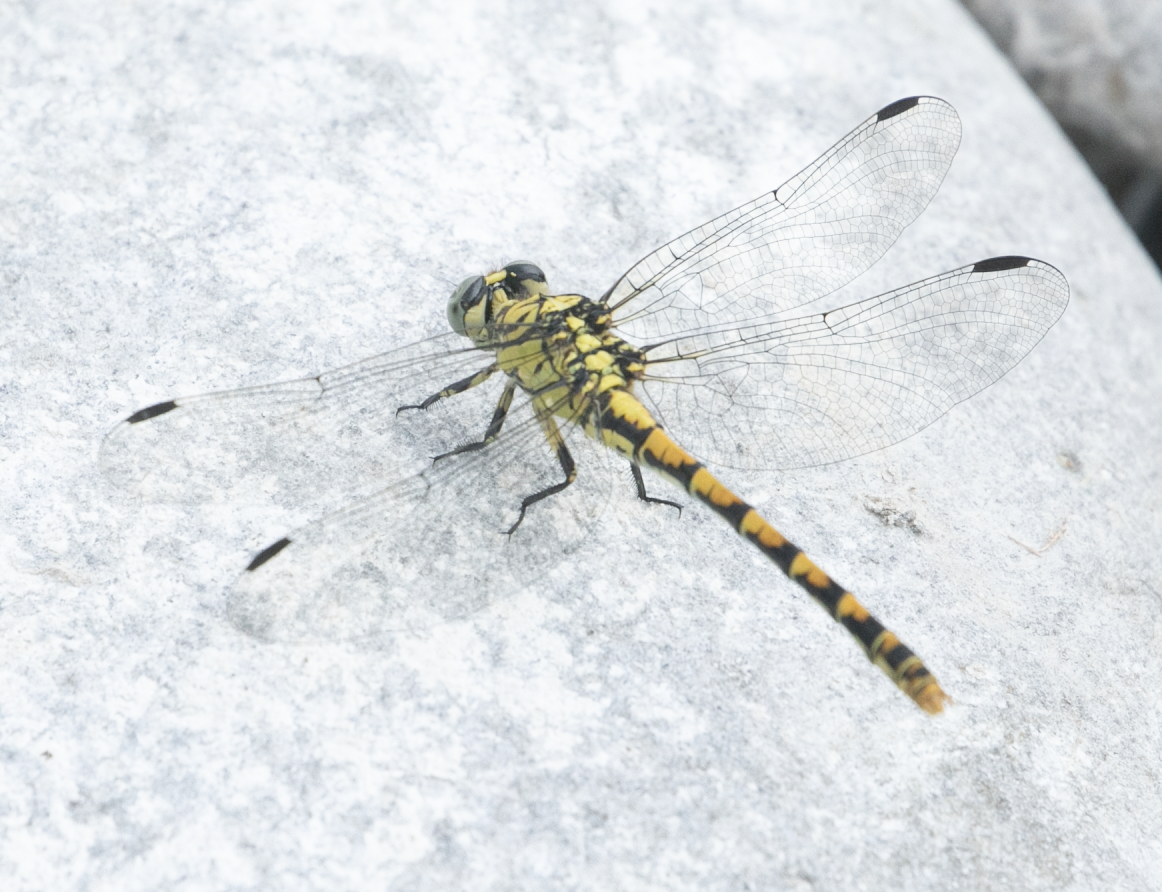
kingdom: Animalia
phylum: Arthropoda
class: Insecta
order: Odonata
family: Gomphidae
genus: Onychogomphus
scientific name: Onychogomphus forcipatus
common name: Small pincertail
